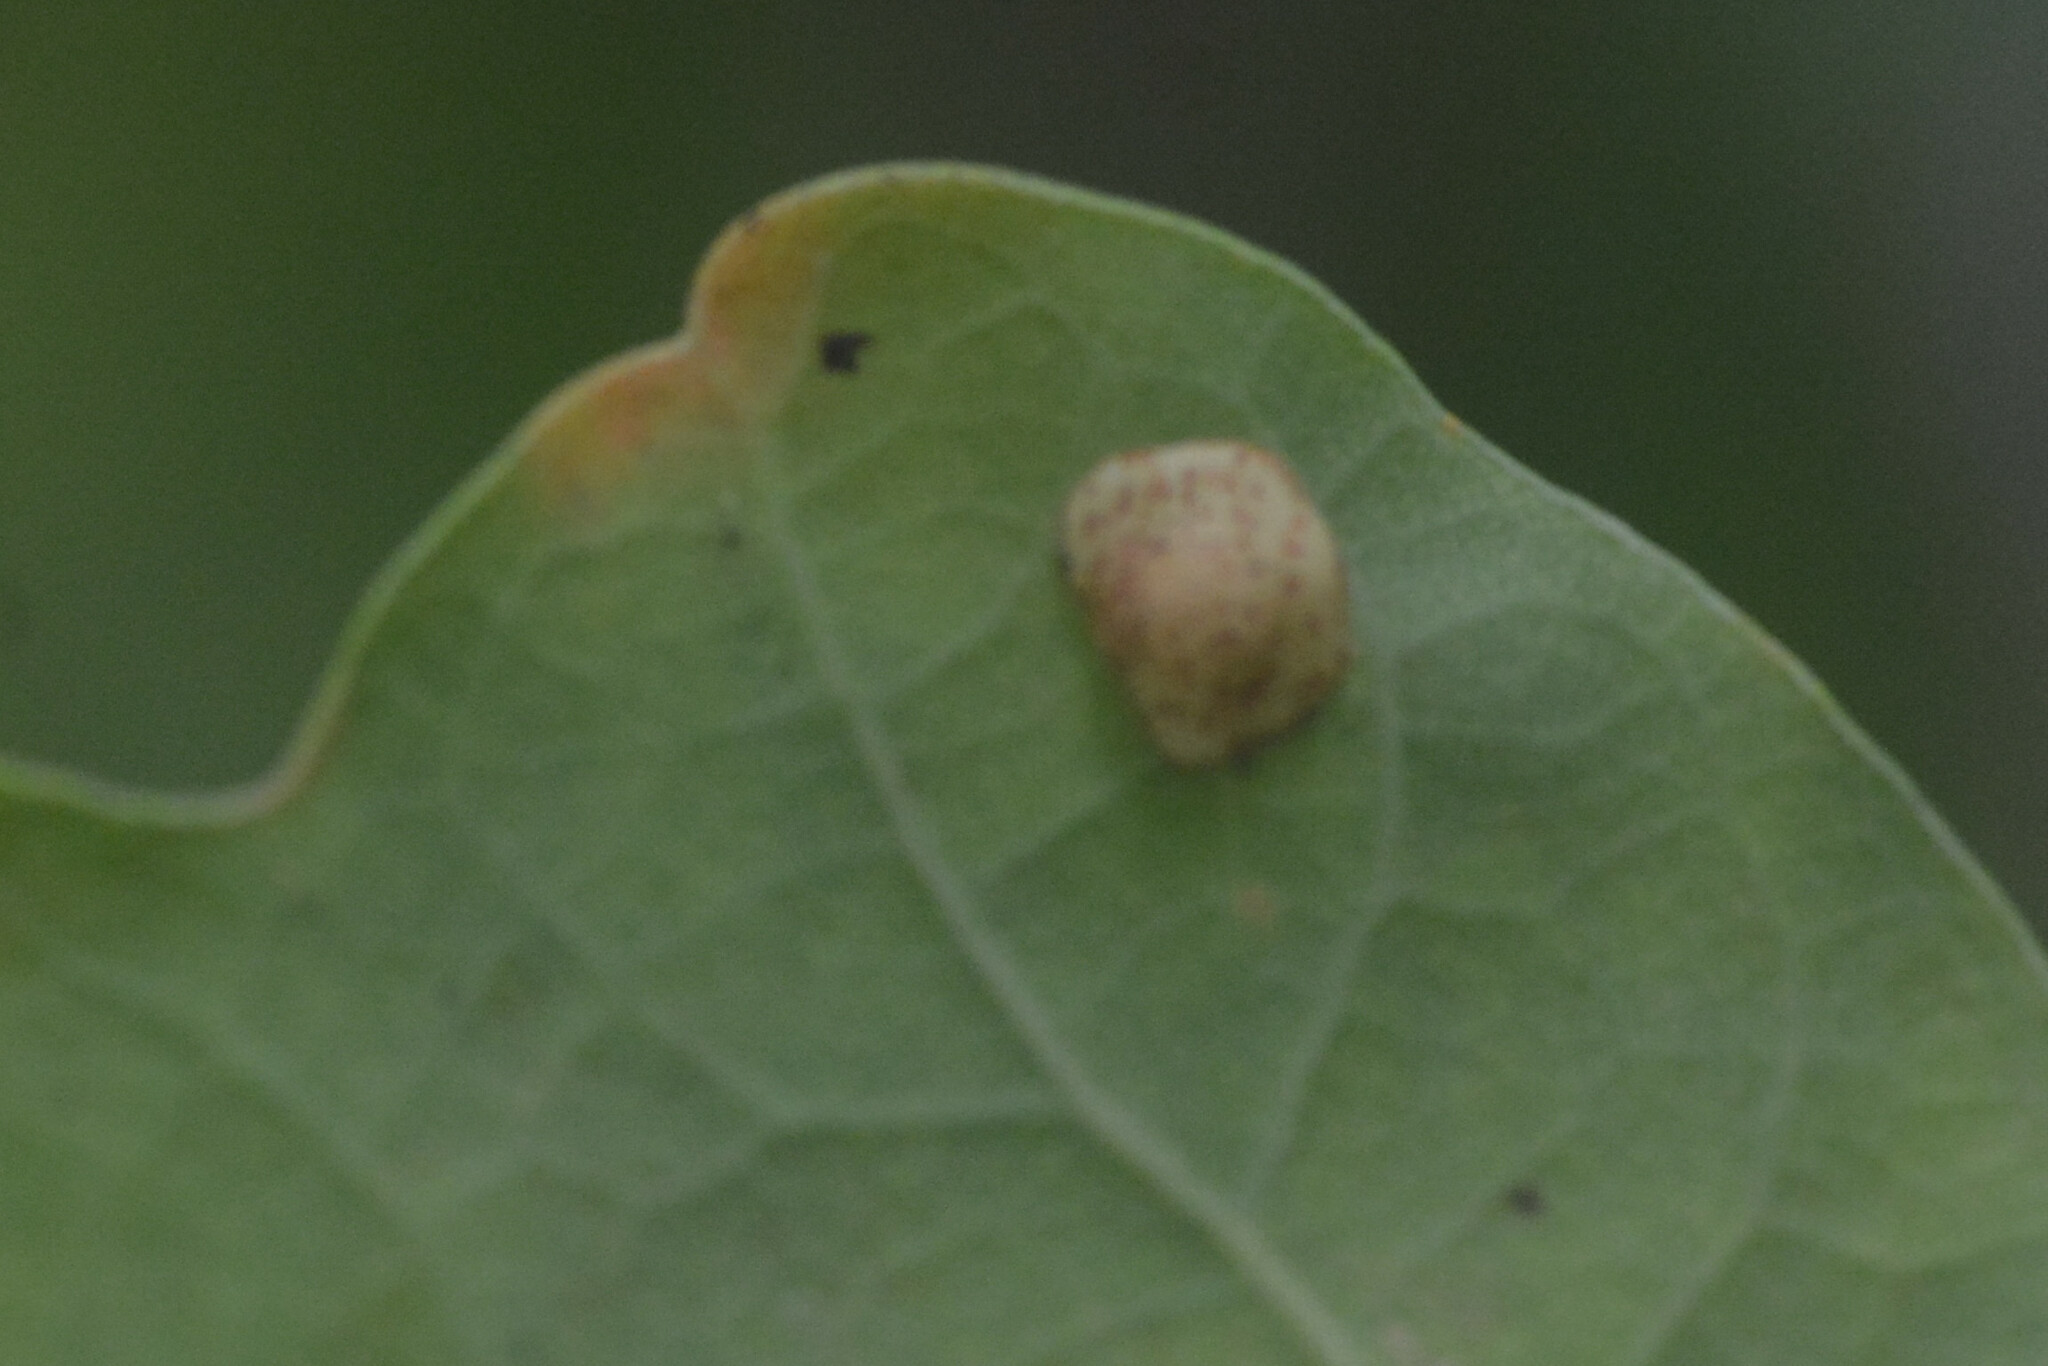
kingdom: Animalia
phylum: Arthropoda
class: Insecta
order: Hymenoptera
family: Cynipidae
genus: Neuroterus
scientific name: Neuroterus quercusbaccarum
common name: Common spangle gall
